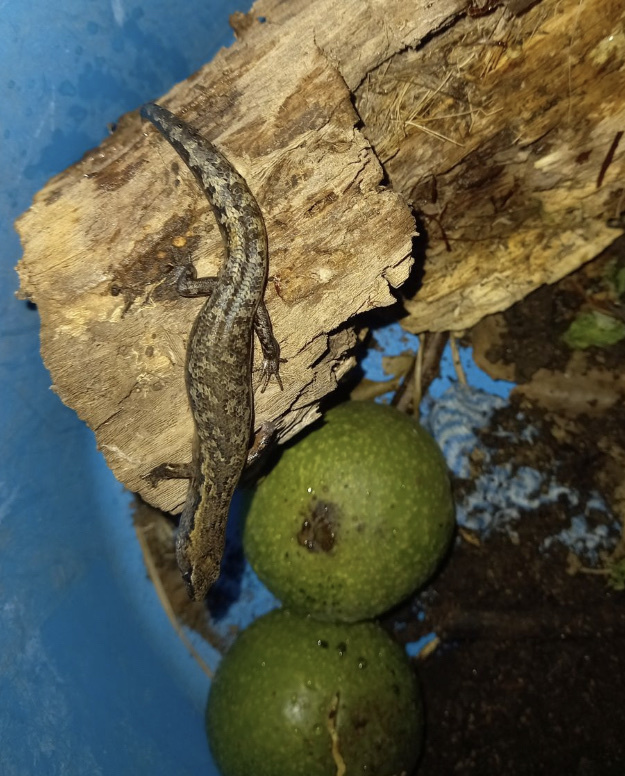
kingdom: Animalia
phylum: Chordata
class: Squamata
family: Scincidae
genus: Oligosoma
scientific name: Oligosoma ornatum
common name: Gray's ornate skink
